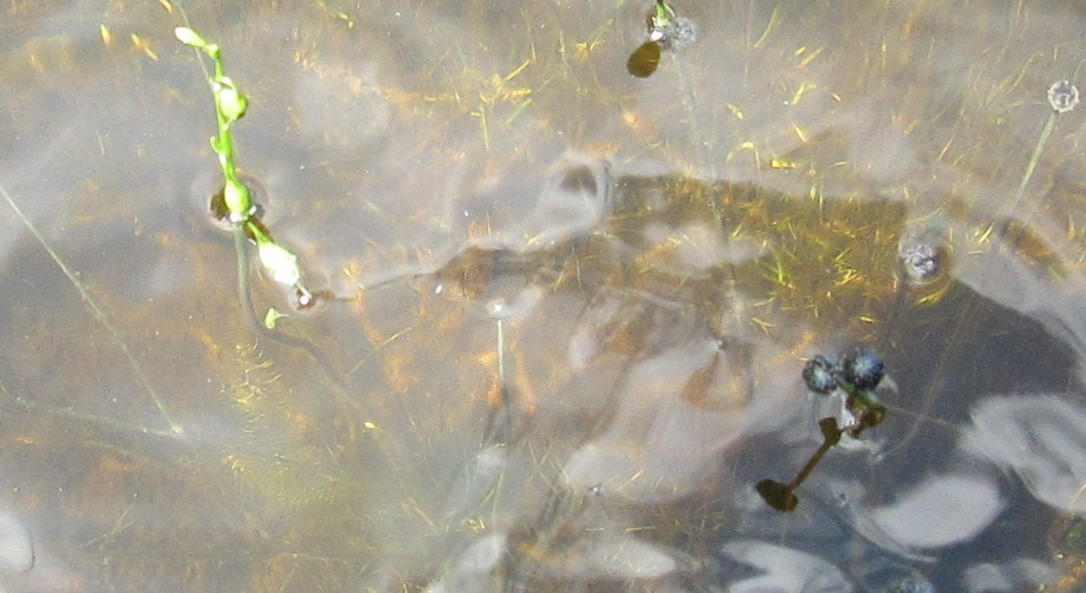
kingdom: Plantae
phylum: Tracheophyta
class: Magnoliopsida
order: Asterales
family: Campanulaceae
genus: Lobelia
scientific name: Lobelia dortmanna
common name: Water lobelia
